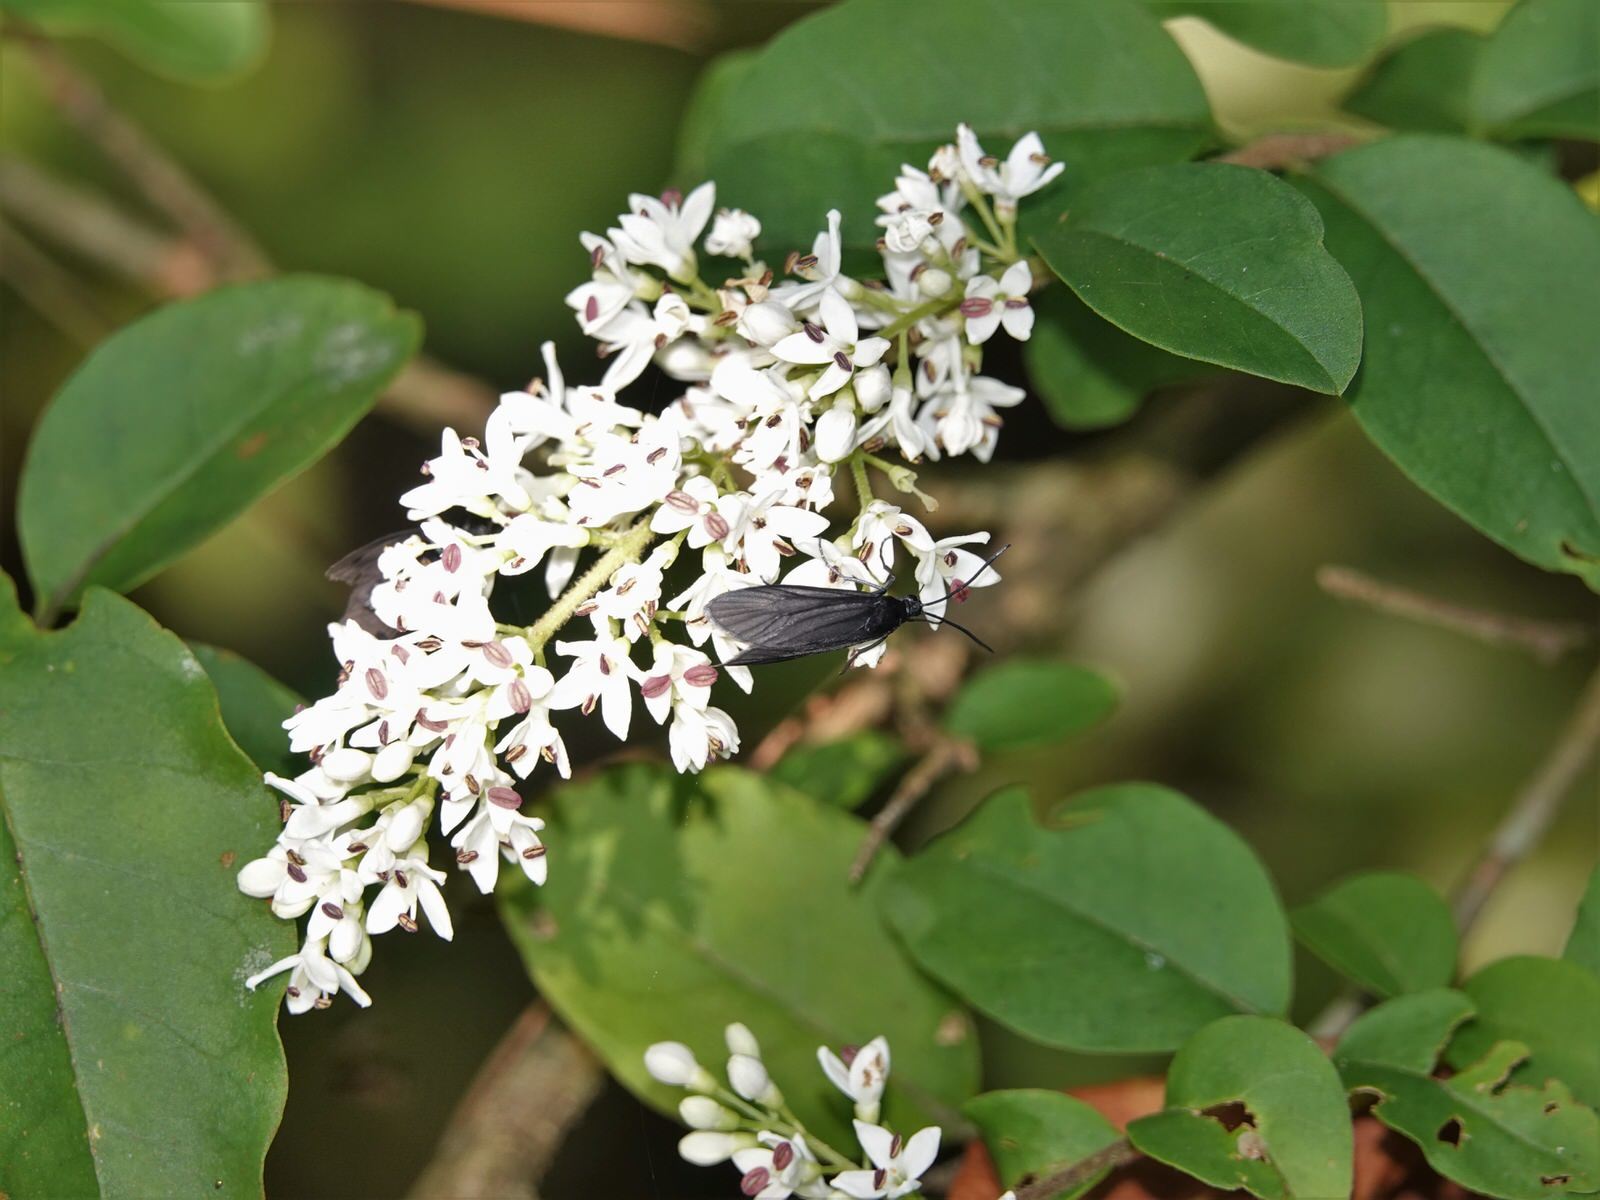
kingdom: Animalia
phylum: Arthropoda
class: Insecta
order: Lepidoptera
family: Zygaenidae
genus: Artona
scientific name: Artona martini
